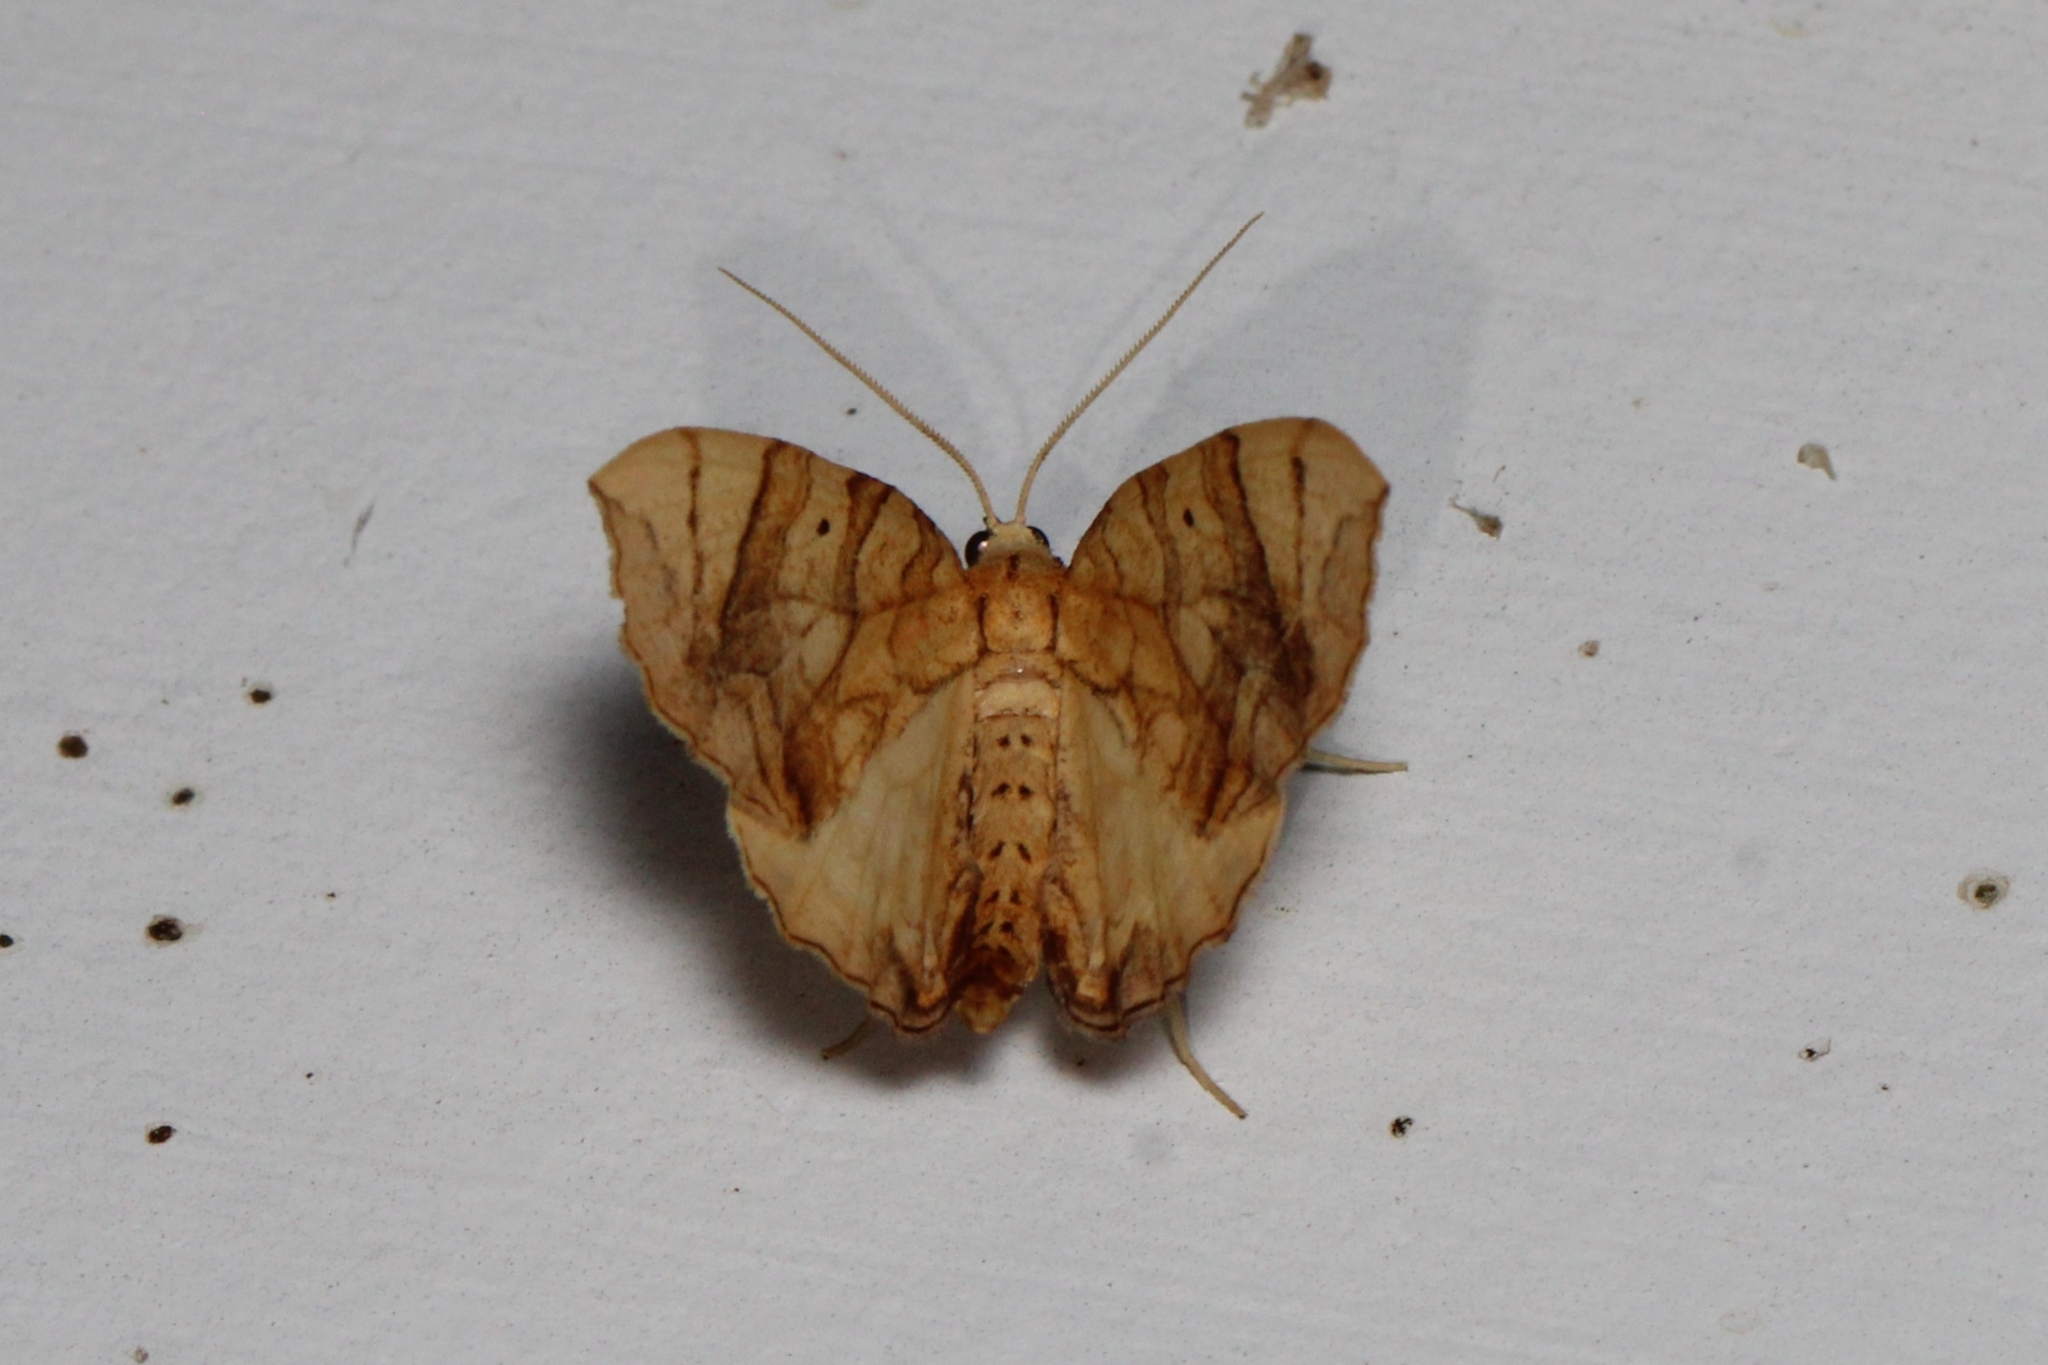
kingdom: Animalia
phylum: Arthropoda
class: Insecta
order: Lepidoptera
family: Geometridae
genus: Eulithis
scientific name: Eulithis
